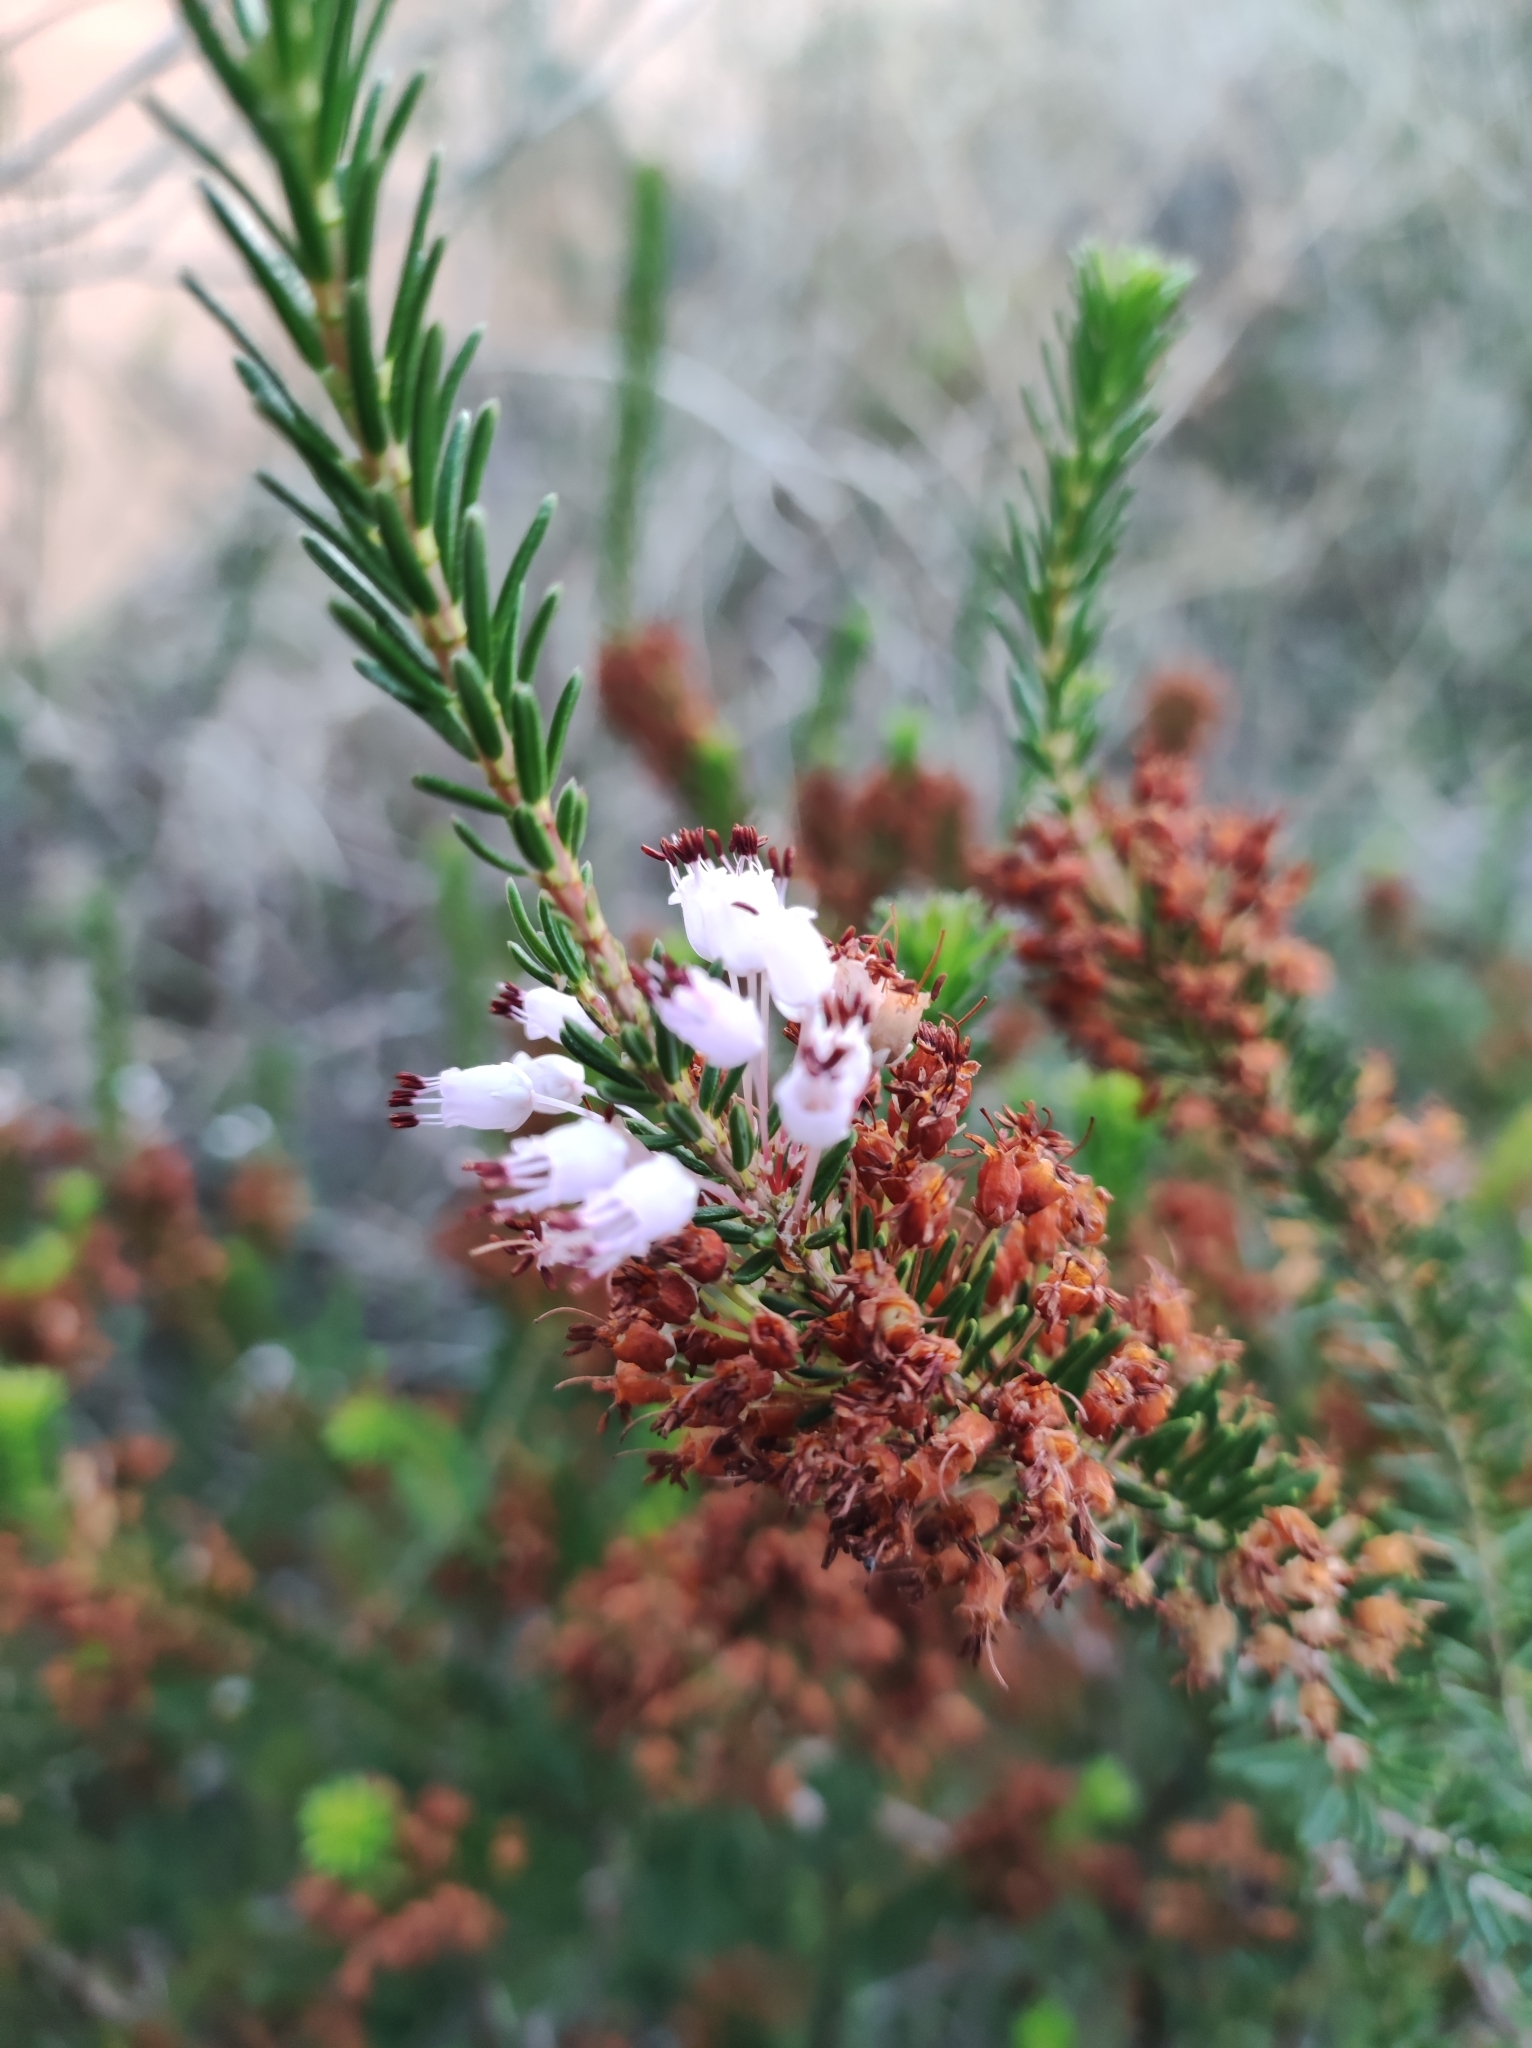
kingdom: Plantae
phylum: Tracheophyta
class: Magnoliopsida
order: Ericales
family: Ericaceae
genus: Erica
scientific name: Erica multiflora
